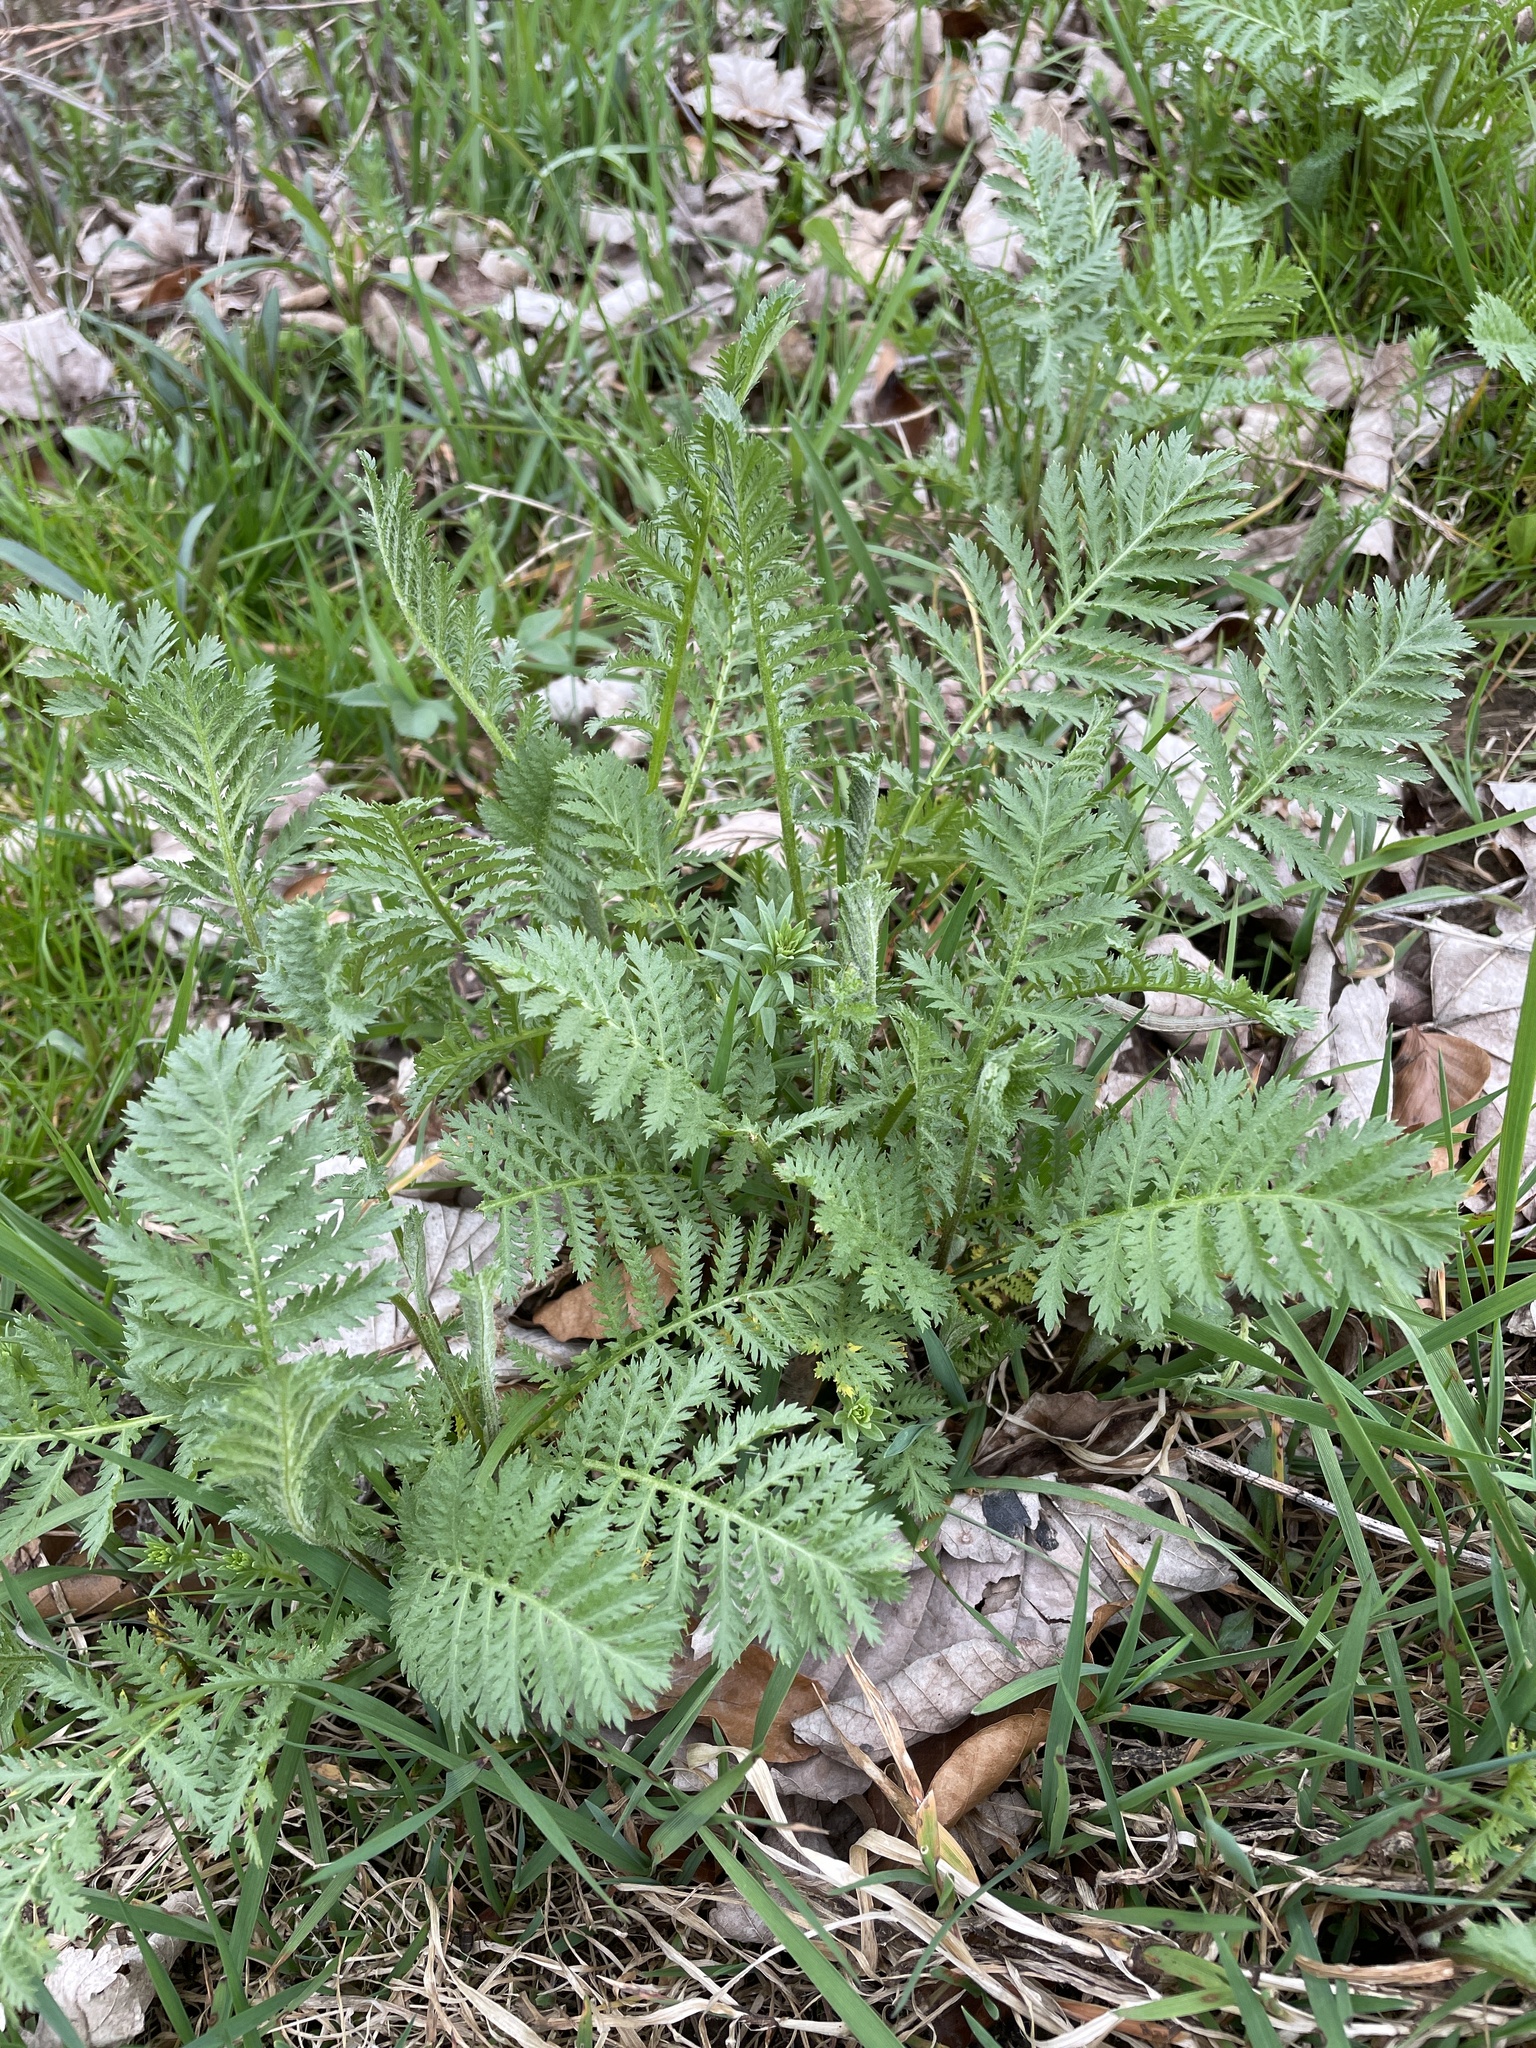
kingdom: Plantae
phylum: Tracheophyta
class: Magnoliopsida
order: Asterales
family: Asteraceae
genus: Tanacetum
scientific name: Tanacetum vulgare
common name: Common tansy
